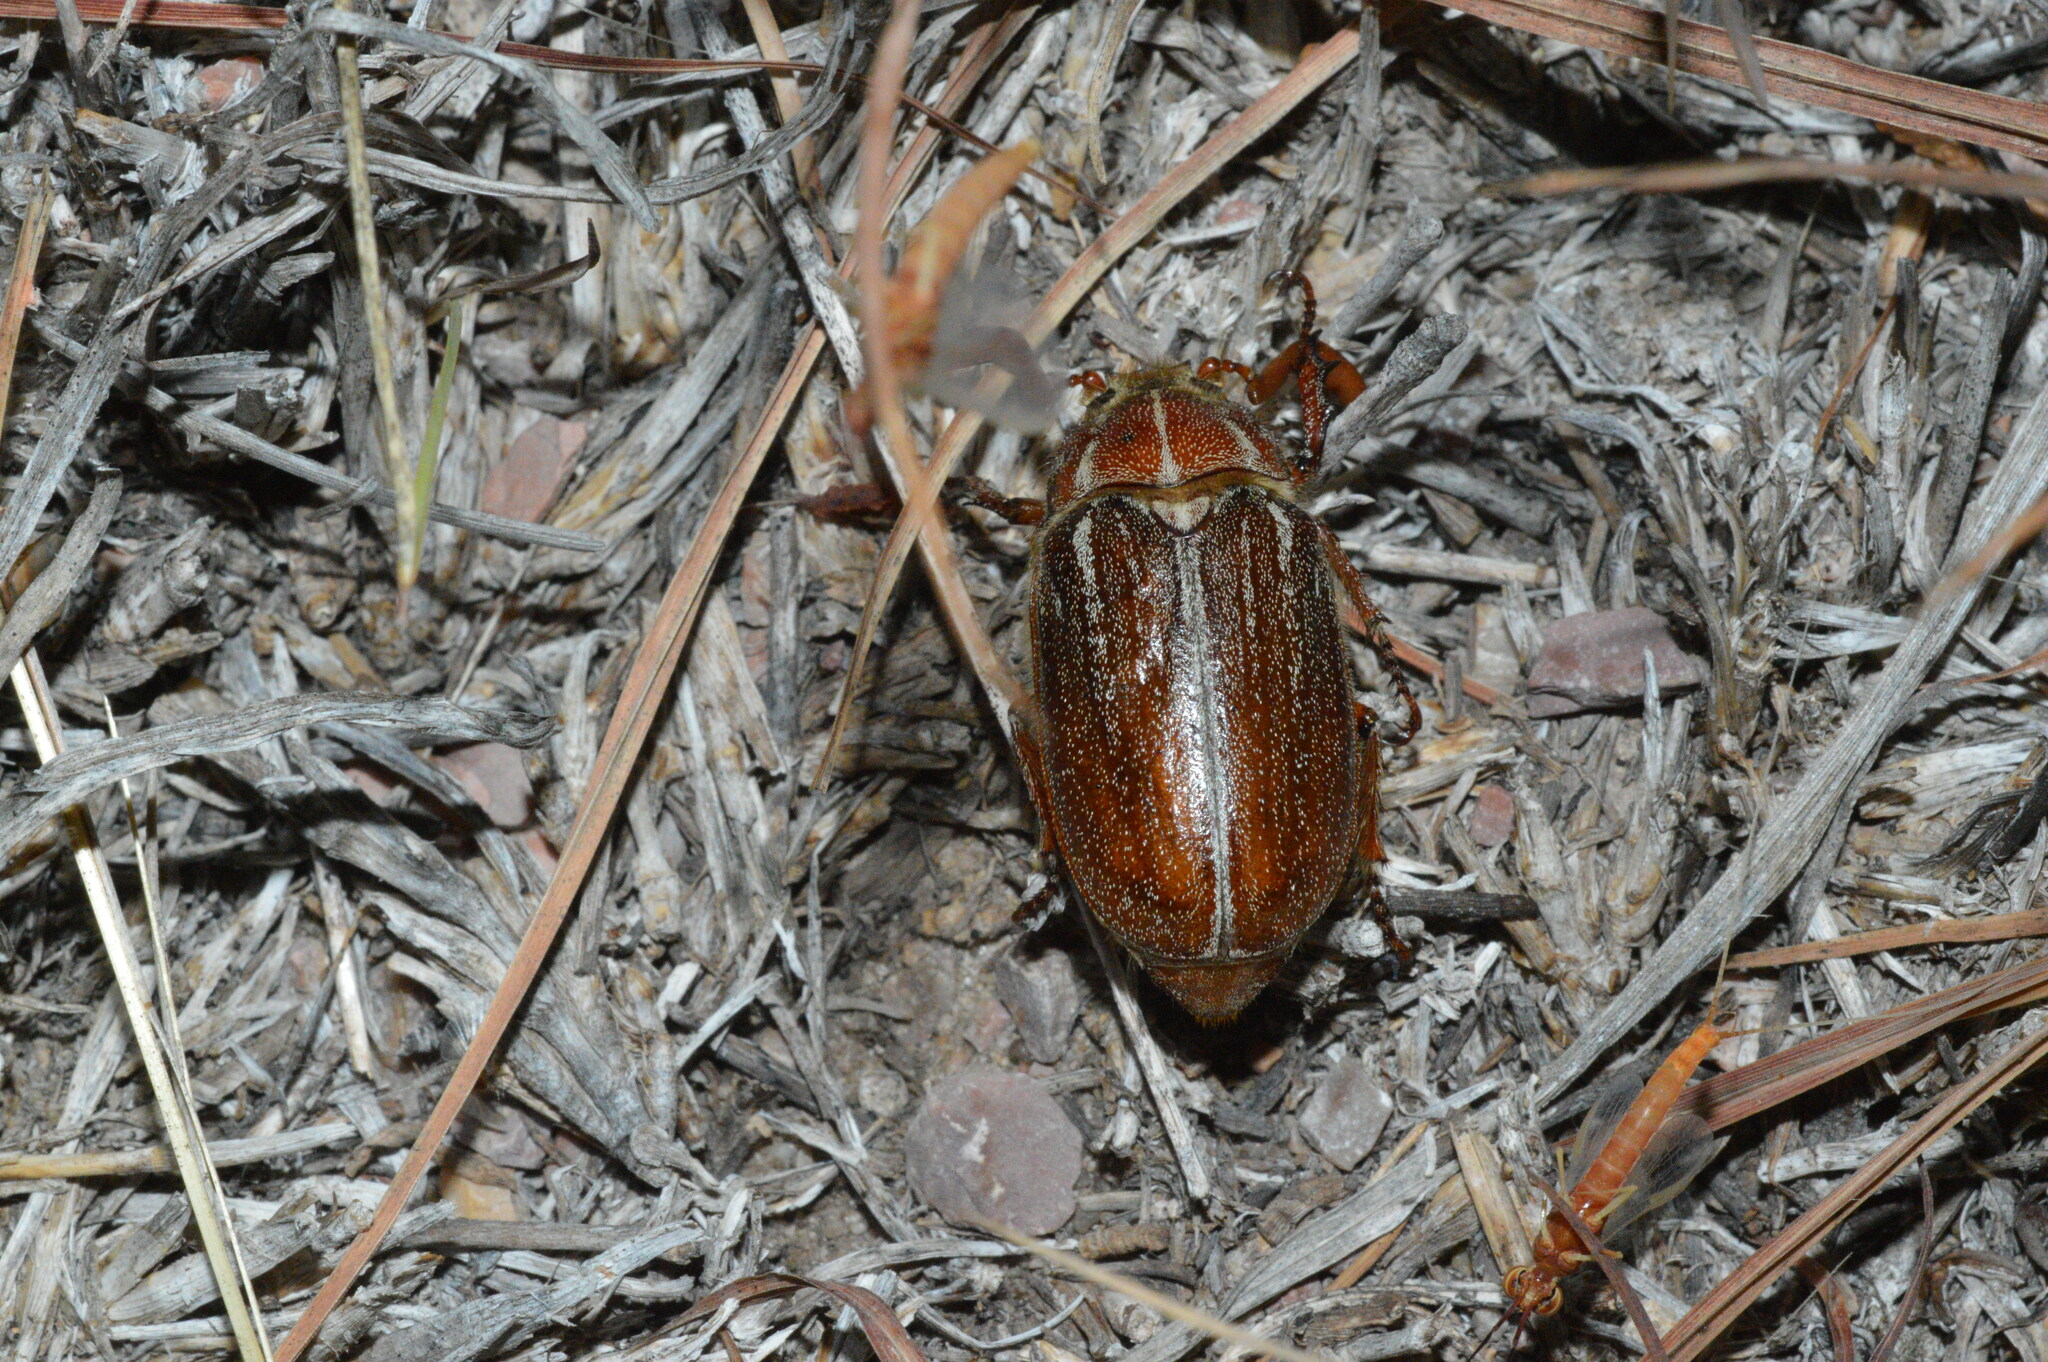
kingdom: Animalia
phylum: Arthropoda
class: Insecta
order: Coleoptera
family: Scarabaeidae
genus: Polyphylla
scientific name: Polyphylla hammondi
